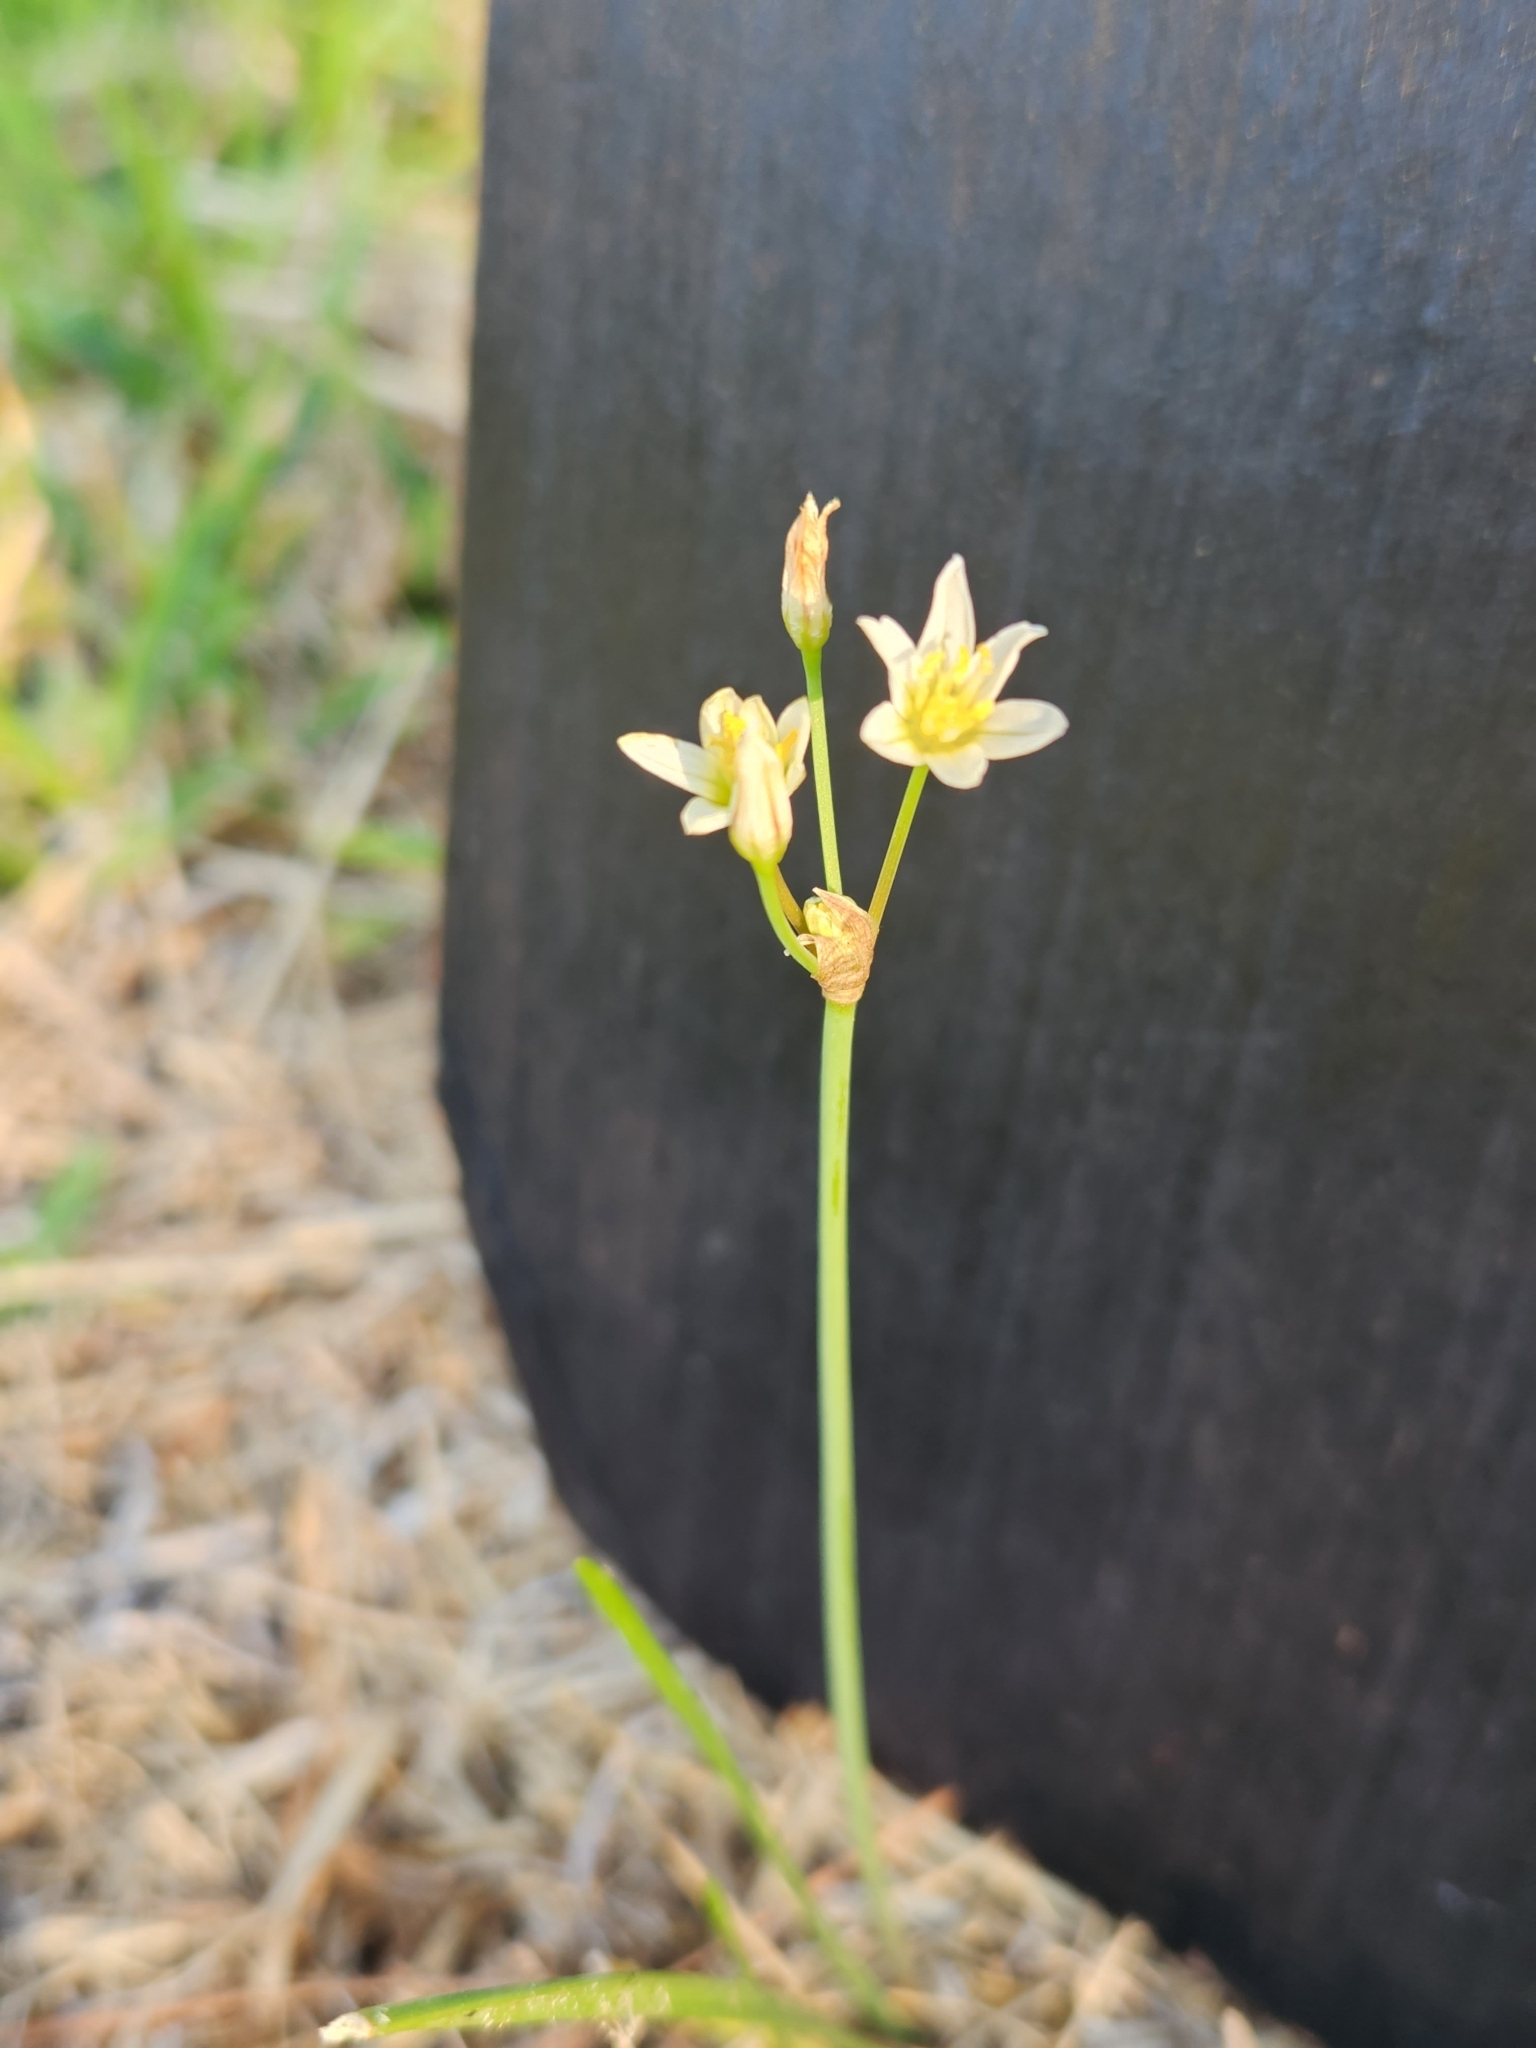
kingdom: Plantae
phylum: Tracheophyta
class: Liliopsida
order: Asparagales
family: Amaryllidaceae
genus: Nothoscordum
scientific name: Nothoscordum bivalve
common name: Crow-poison
